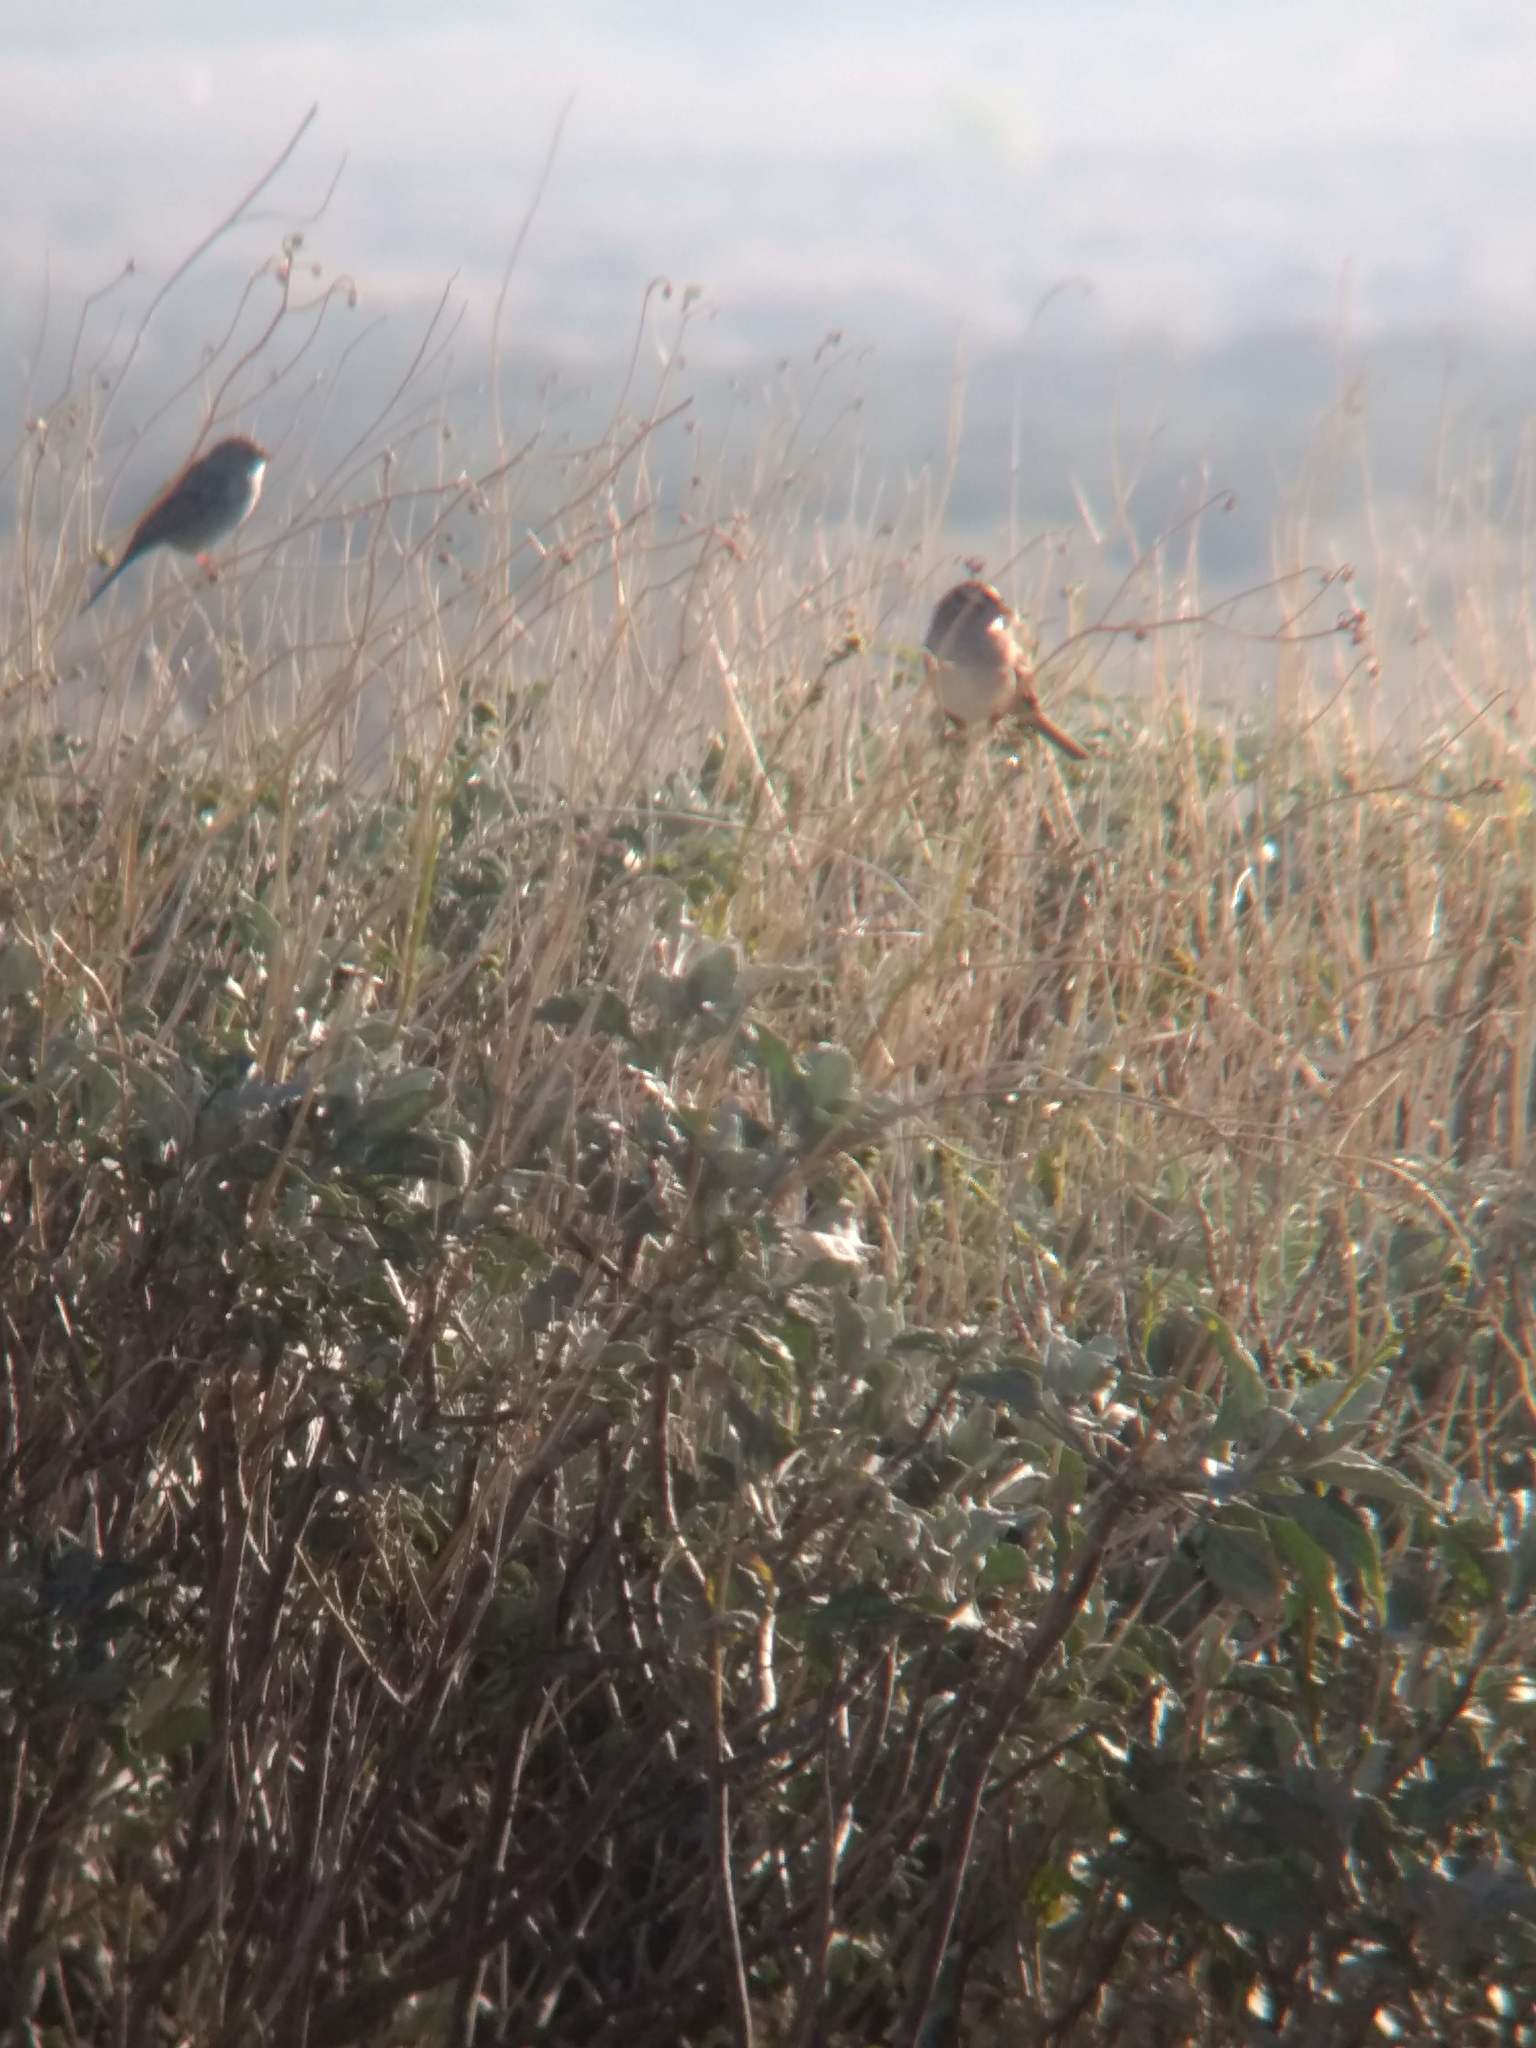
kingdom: Animalia
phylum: Chordata
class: Aves
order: Passeriformes
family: Passerellidae
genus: Zonotrichia
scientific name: Zonotrichia leucophrys
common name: White-crowned sparrow
